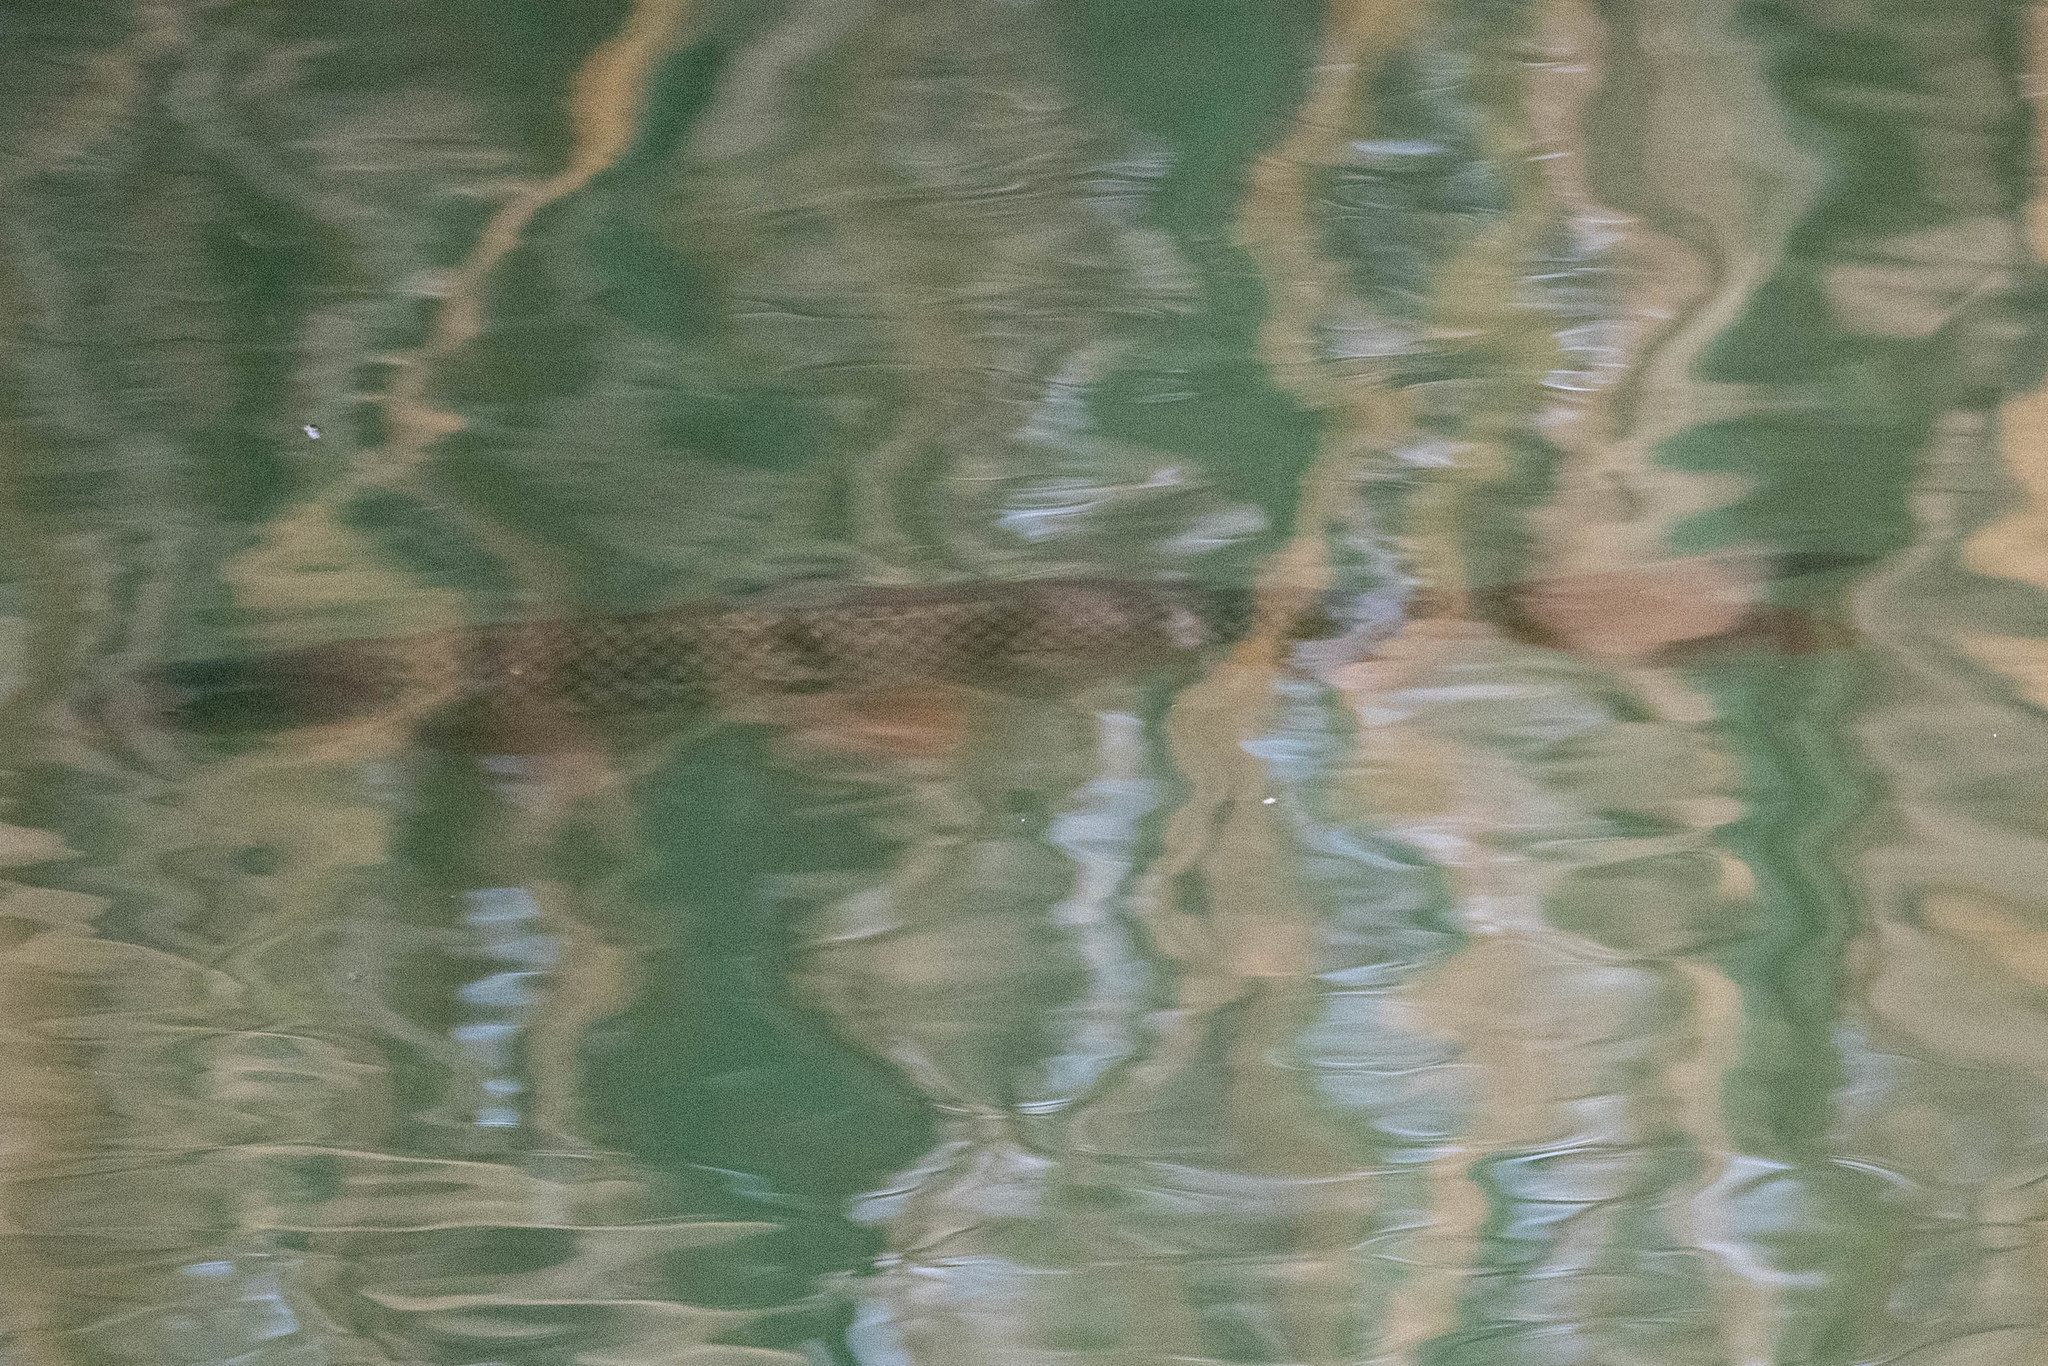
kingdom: Animalia
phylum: Chordata
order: Cypriniformes
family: Cyprinidae
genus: Cyprinus
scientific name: Cyprinus carpio
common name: Common carp
